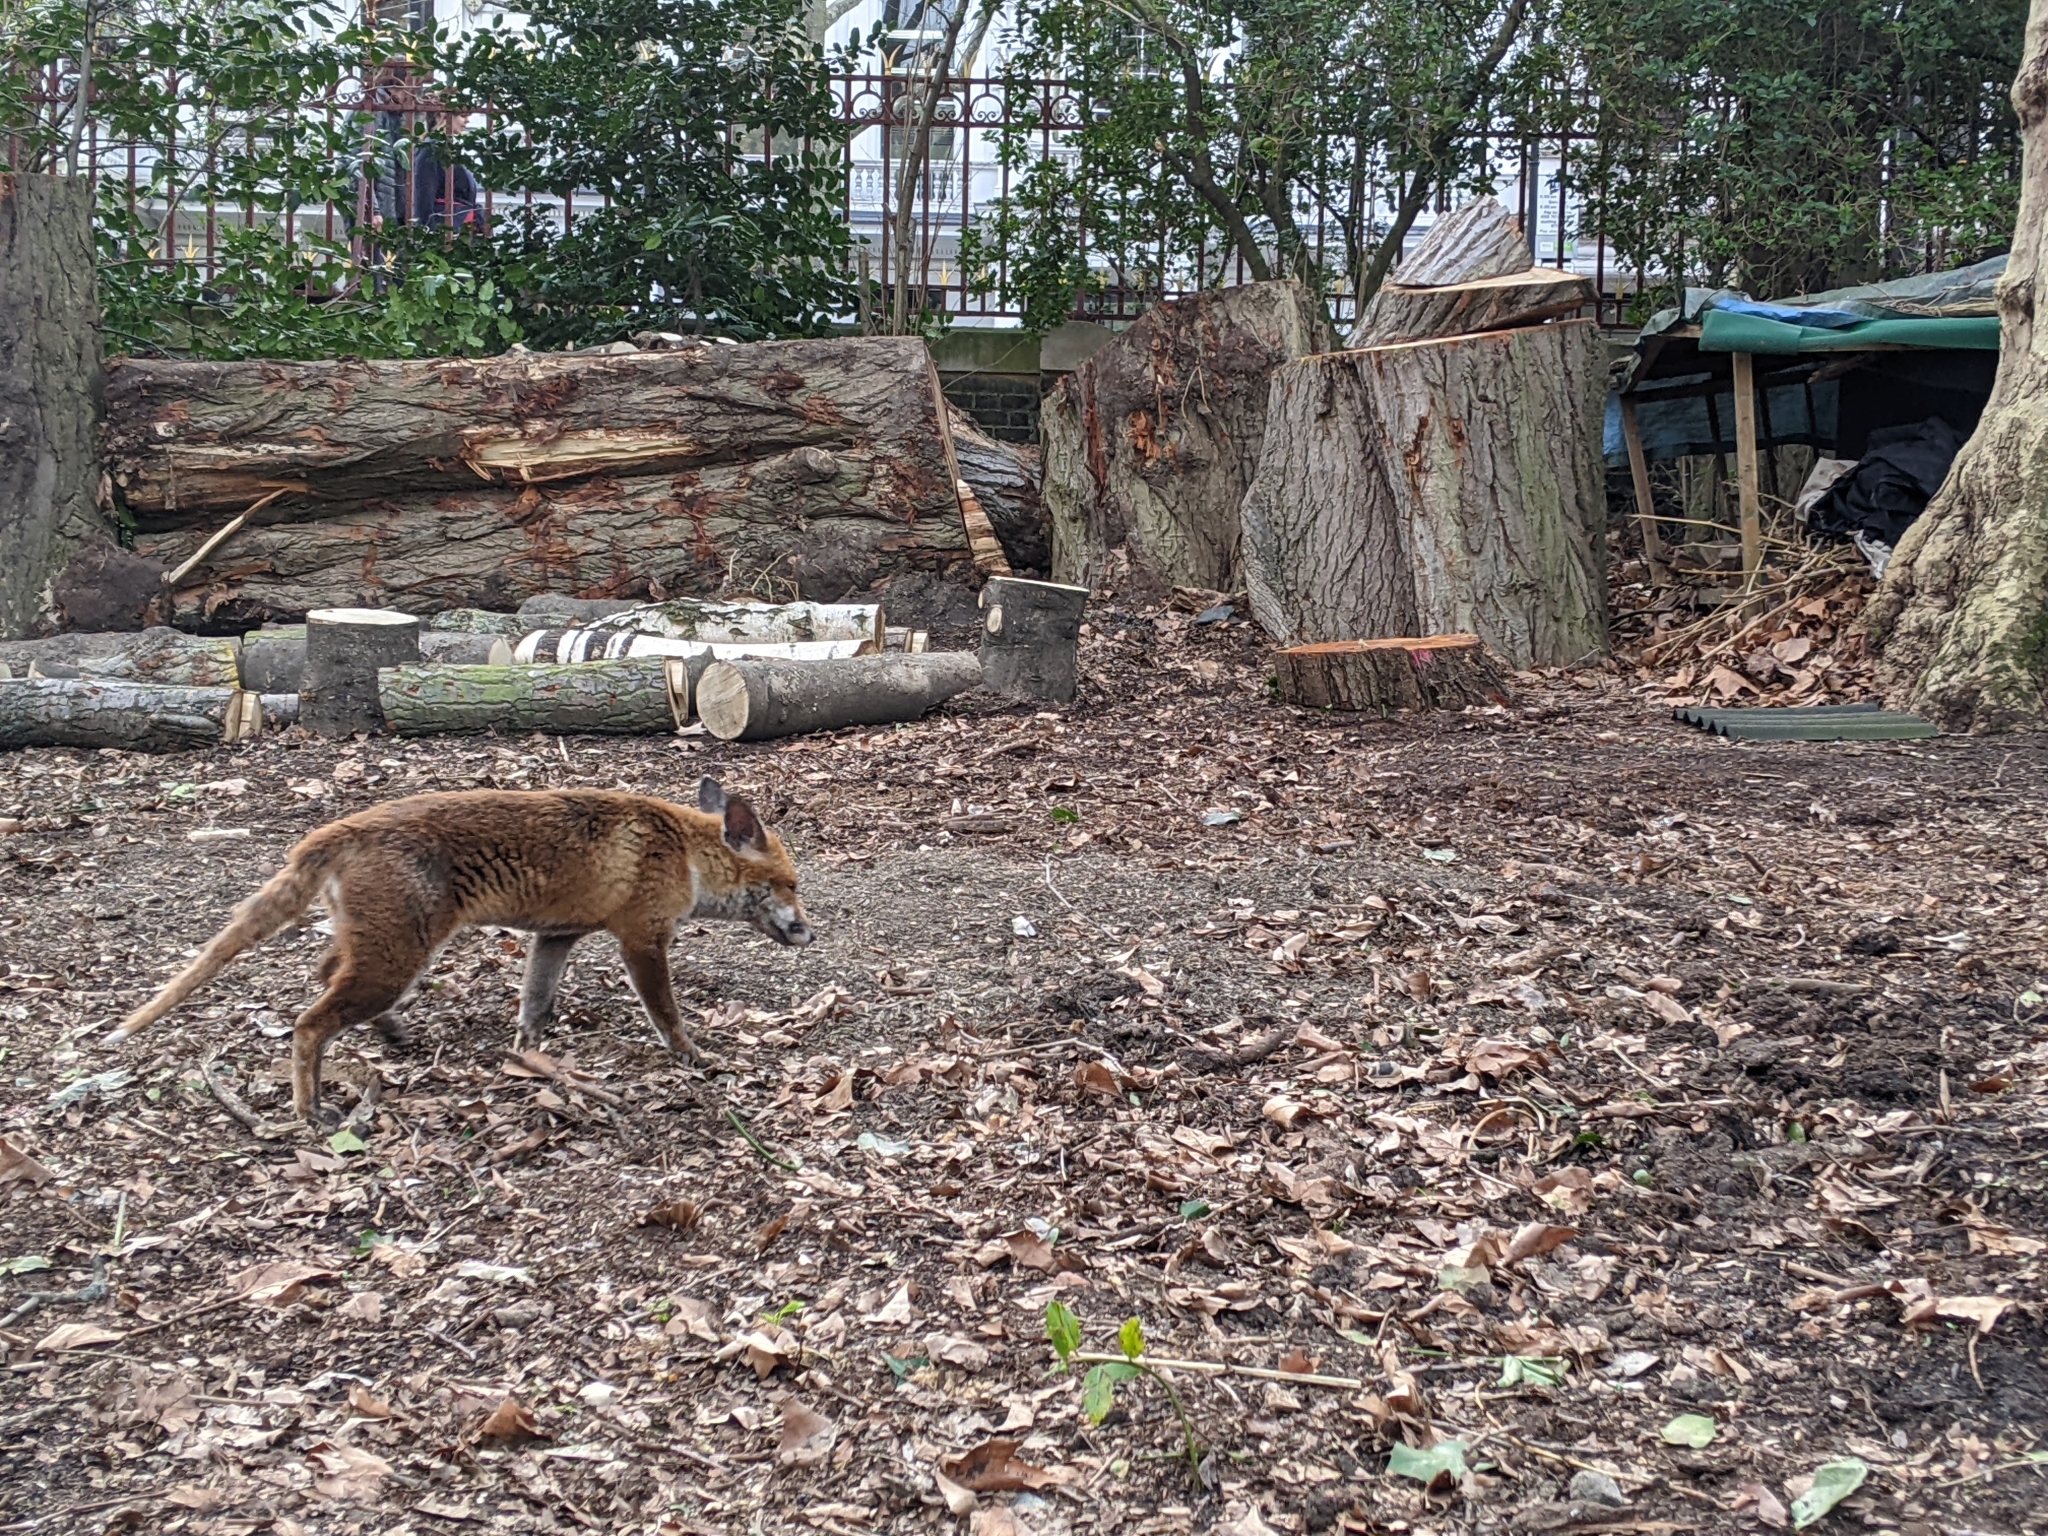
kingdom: Animalia
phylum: Chordata
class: Mammalia
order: Carnivora
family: Canidae
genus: Vulpes
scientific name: Vulpes vulpes
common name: Red fox
